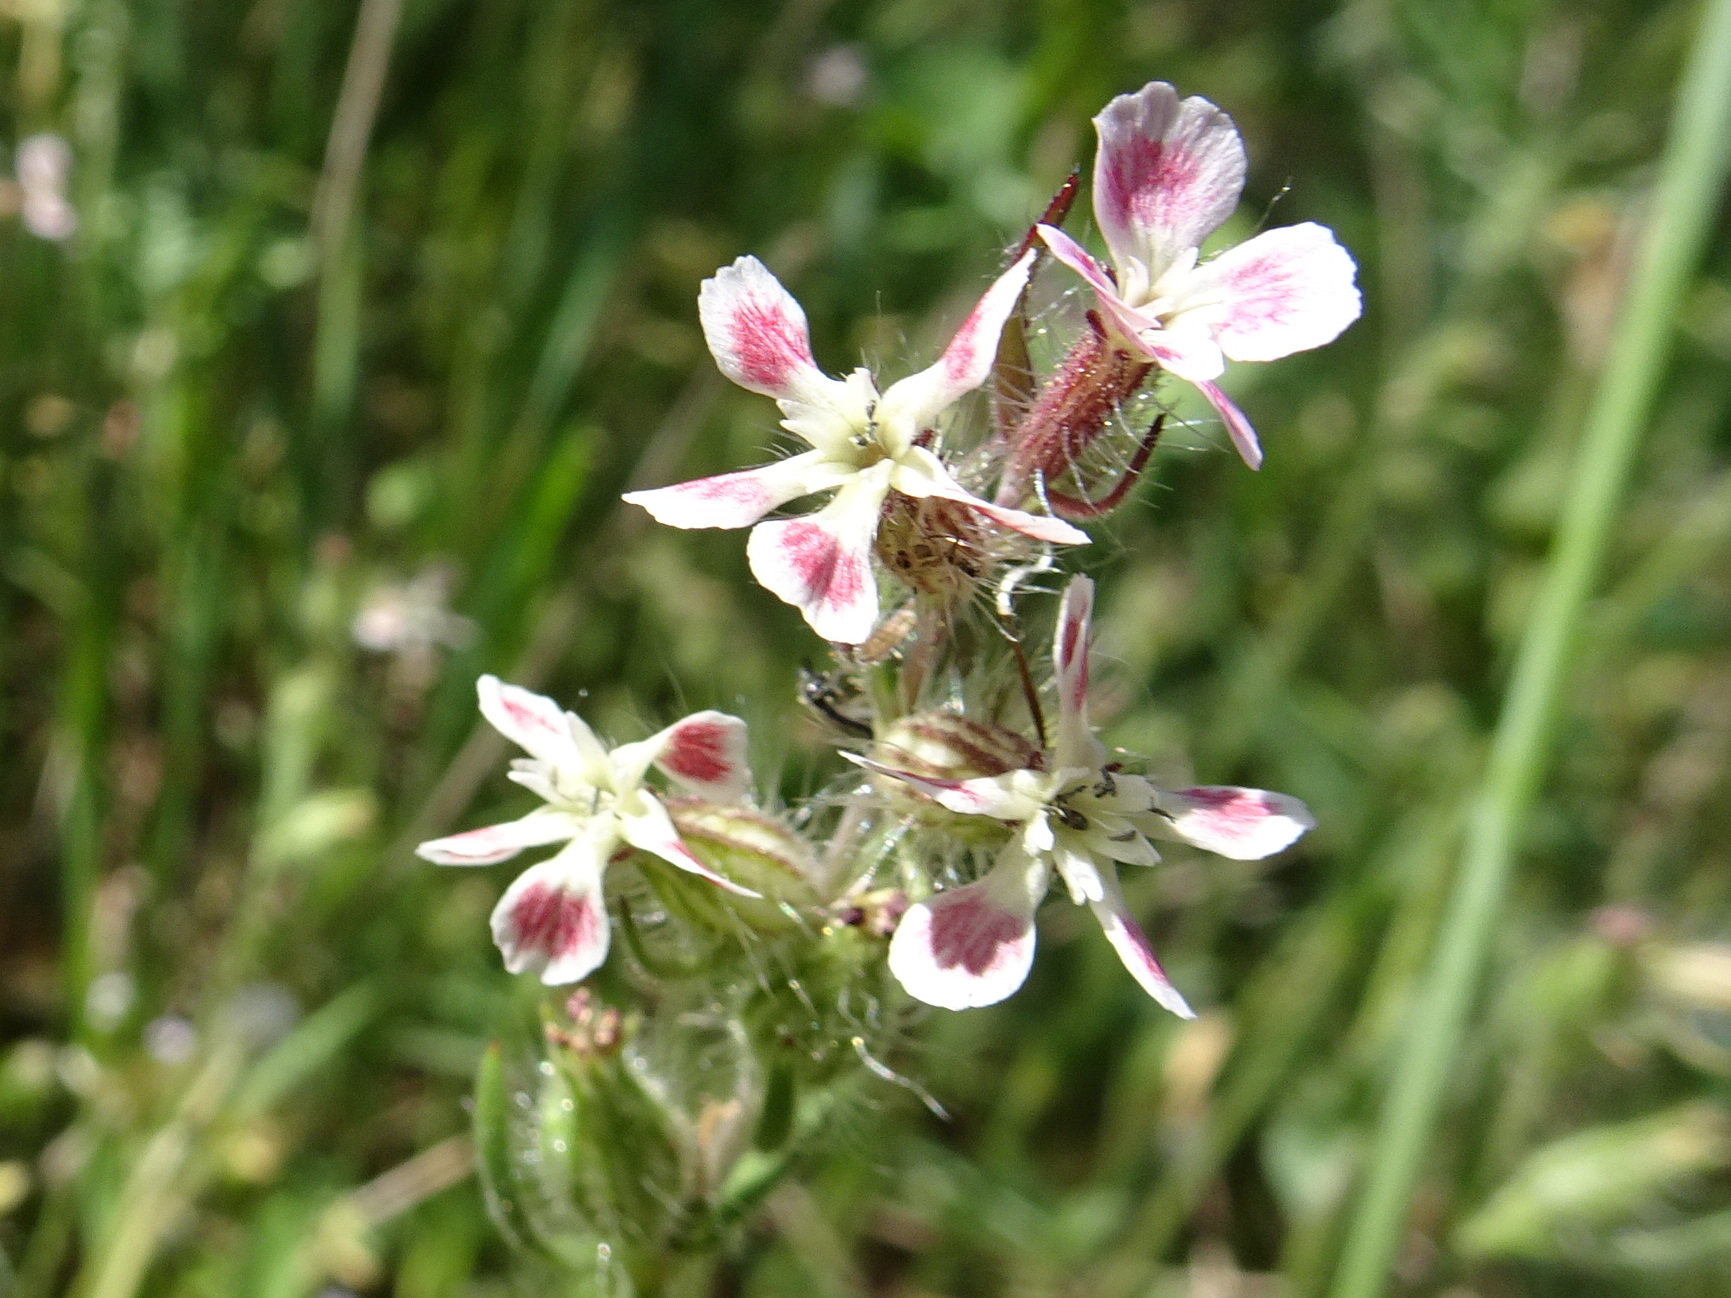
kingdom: Plantae
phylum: Tracheophyta
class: Magnoliopsida
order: Caryophyllales
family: Caryophyllaceae
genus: Silene
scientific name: Silene gallica
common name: Small-flowered catchfly
